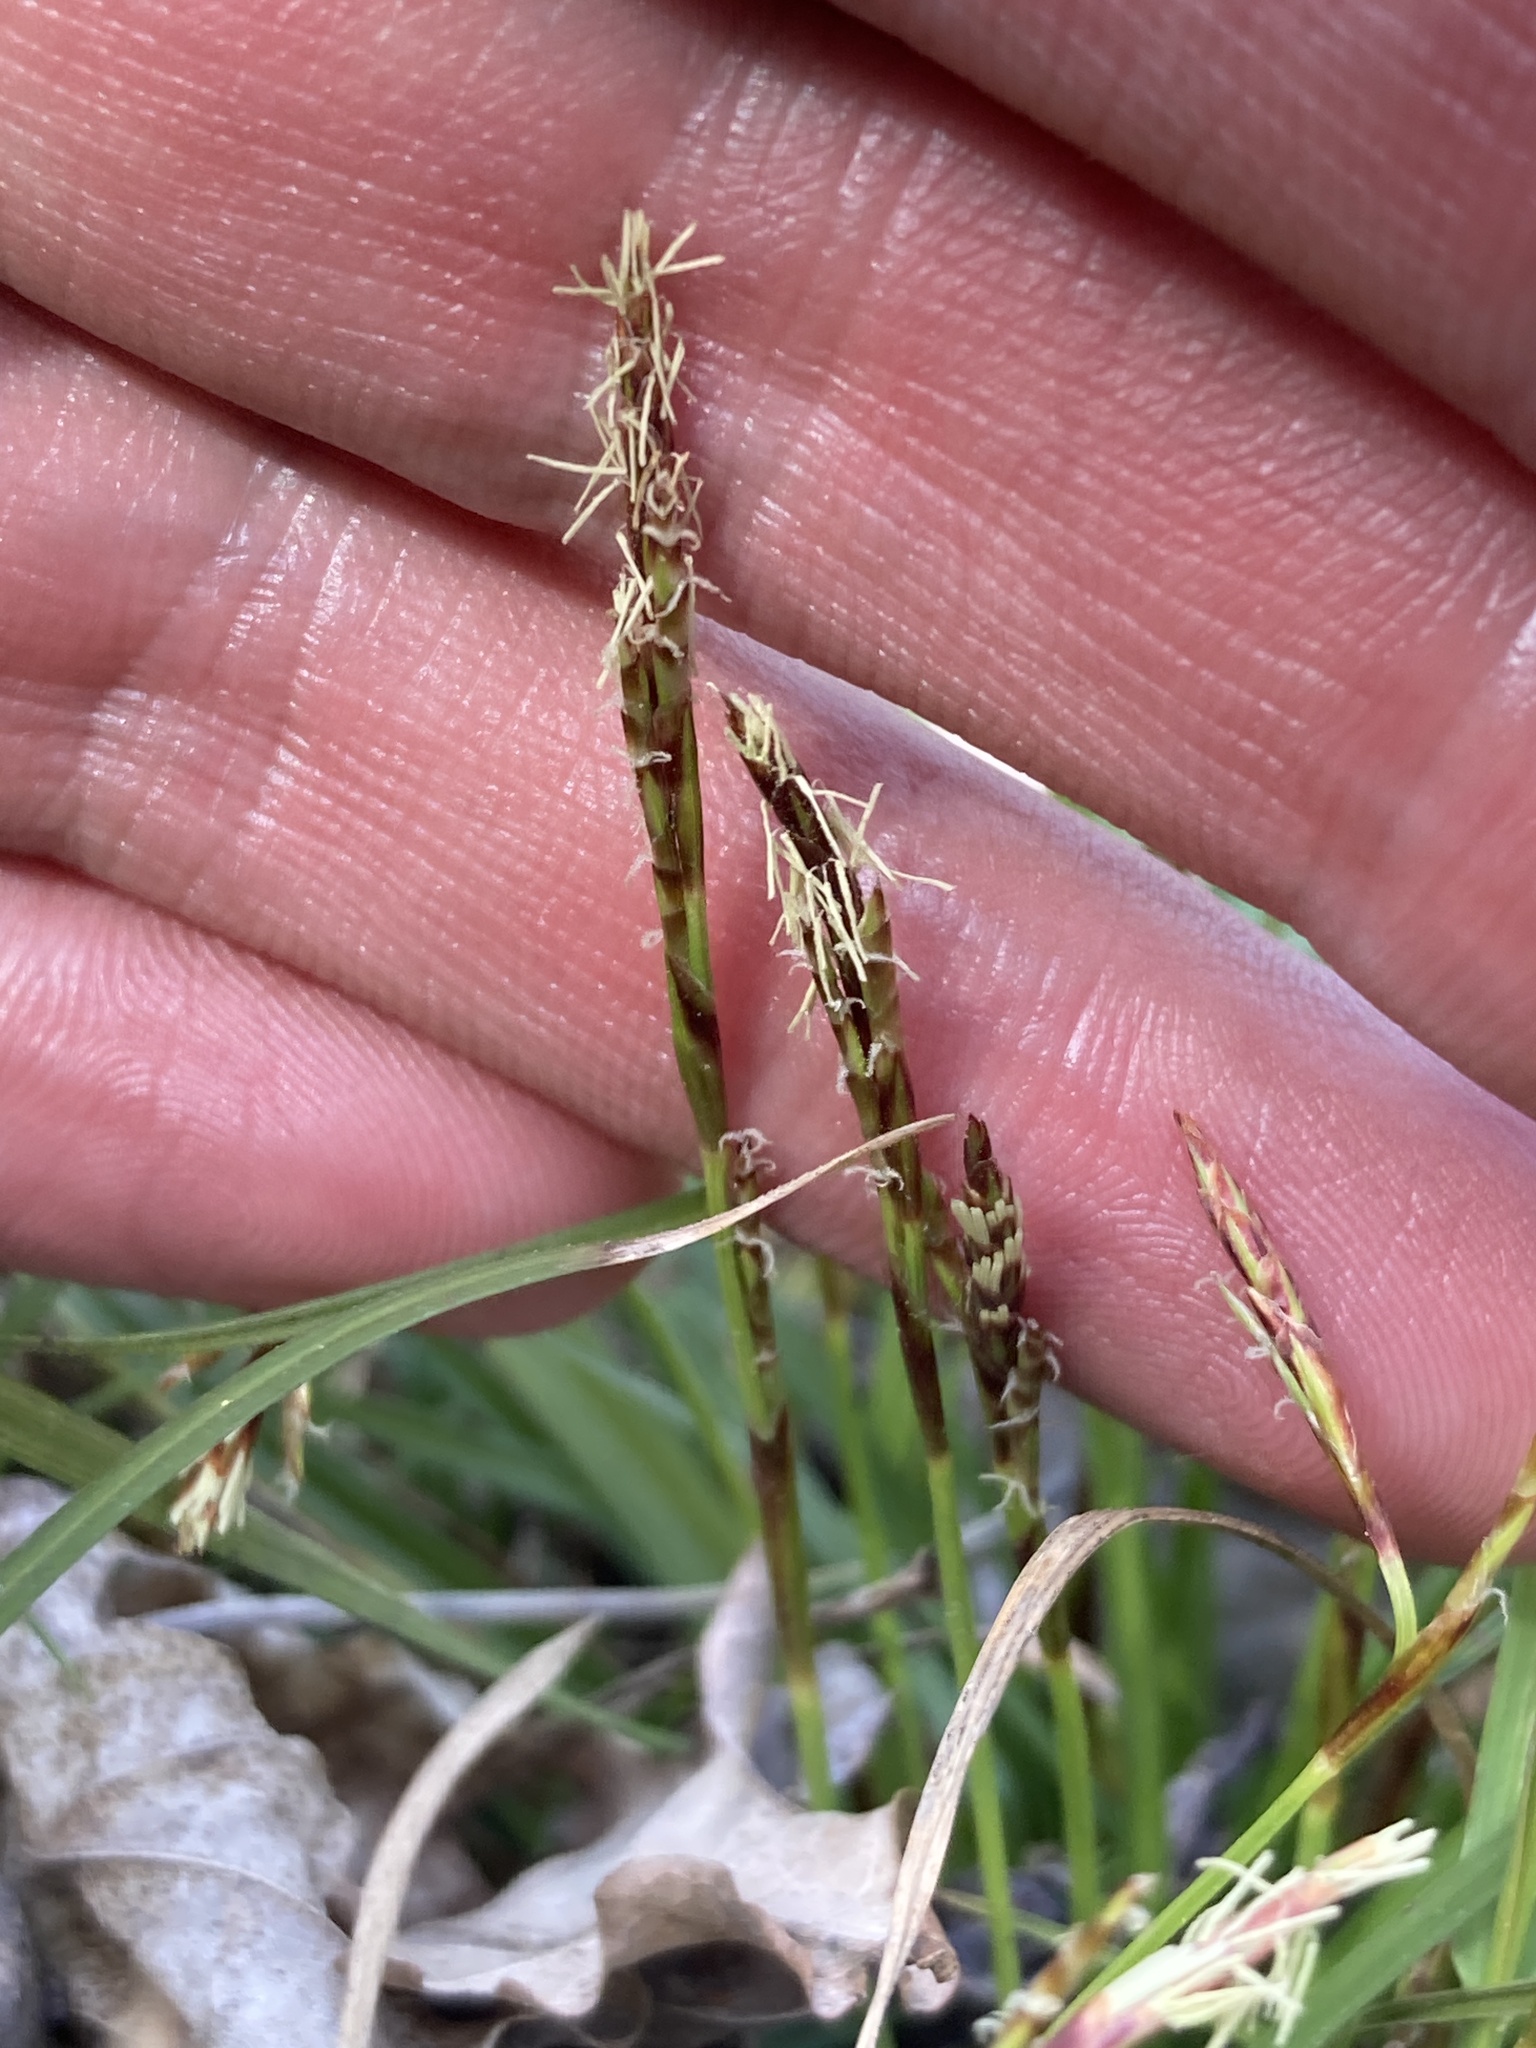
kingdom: Plantae
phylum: Tracheophyta
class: Liliopsida
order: Poales
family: Cyperaceae
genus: Carex
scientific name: Carex digitata
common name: Fingered sedge
